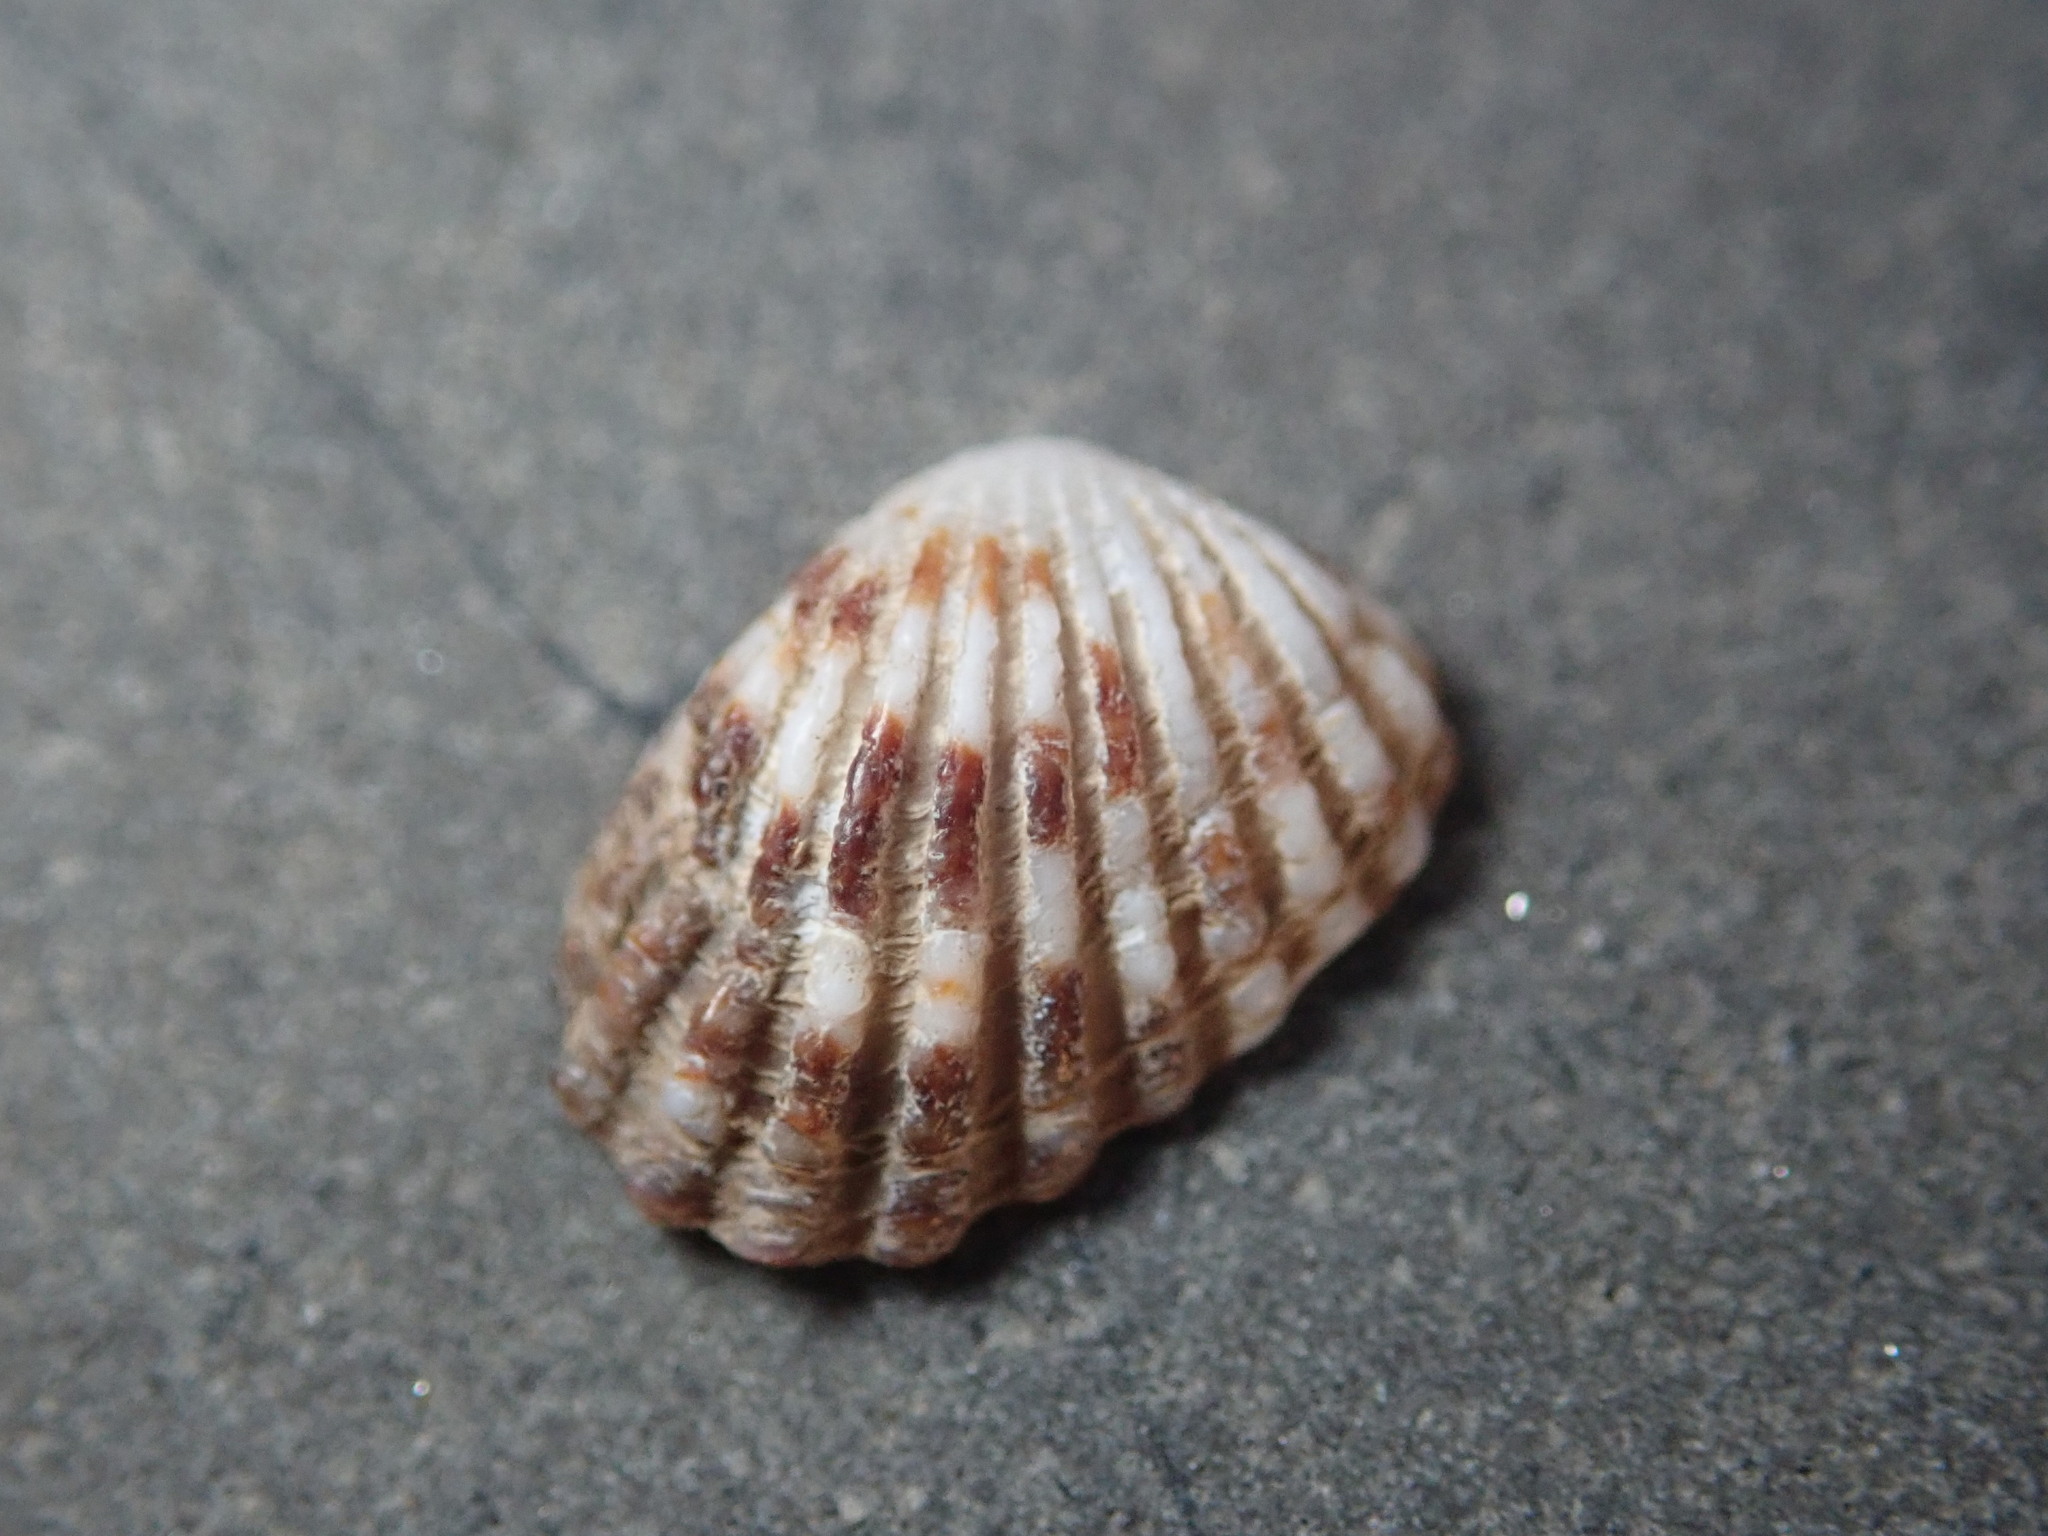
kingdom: Animalia
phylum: Mollusca
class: Bivalvia
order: Carditida
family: Carditidae
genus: Glans
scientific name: Glans carpenteri
